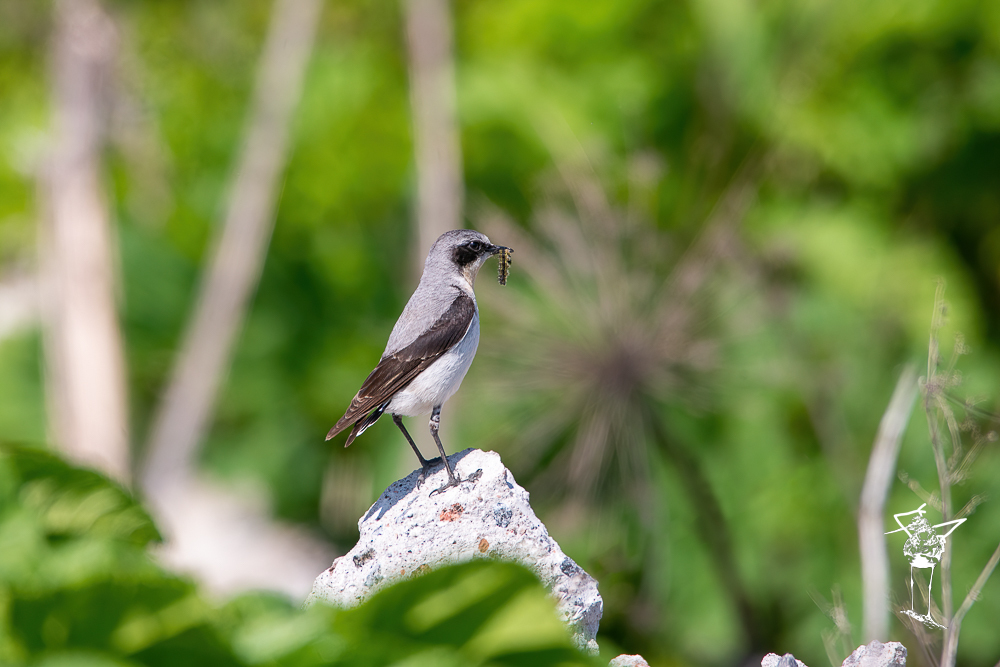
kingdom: Animalia
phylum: Chordata
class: Aves
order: Passeriformes
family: Muscicapidae
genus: Oenanthe
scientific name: Oenanthe oenanthe
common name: Northern wheatear
